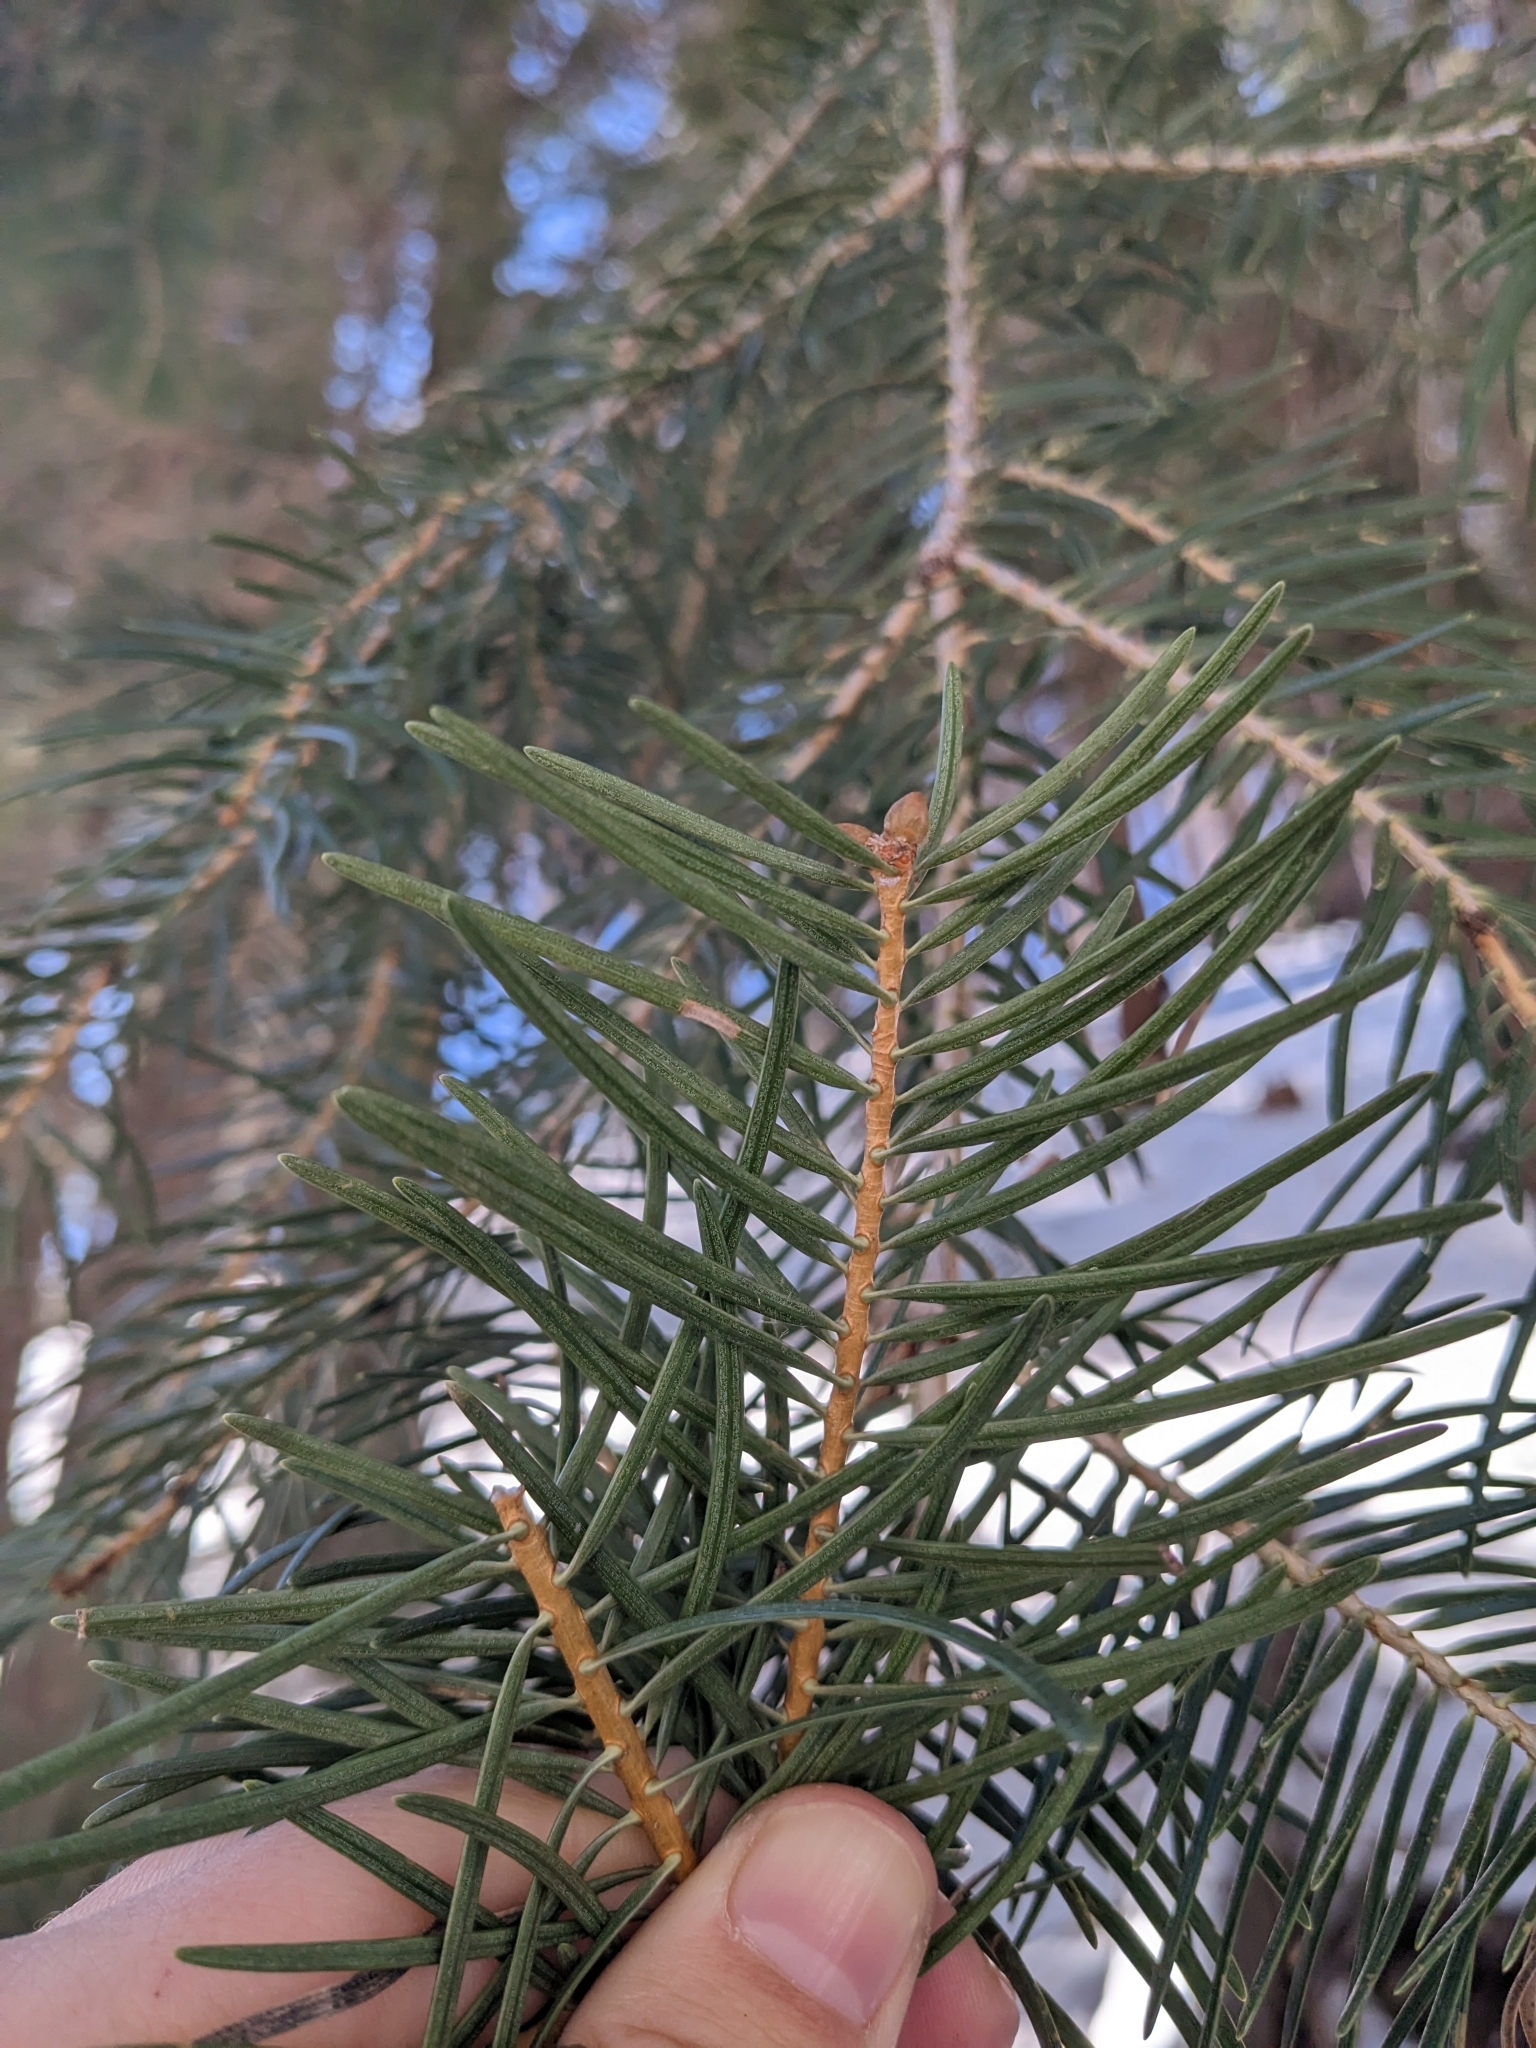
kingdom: Plantae
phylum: Tracheophyta
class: Pinopsida
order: Pinales
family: Pinaceae
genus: Abies
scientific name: Abies concolor
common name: Colorado fir
